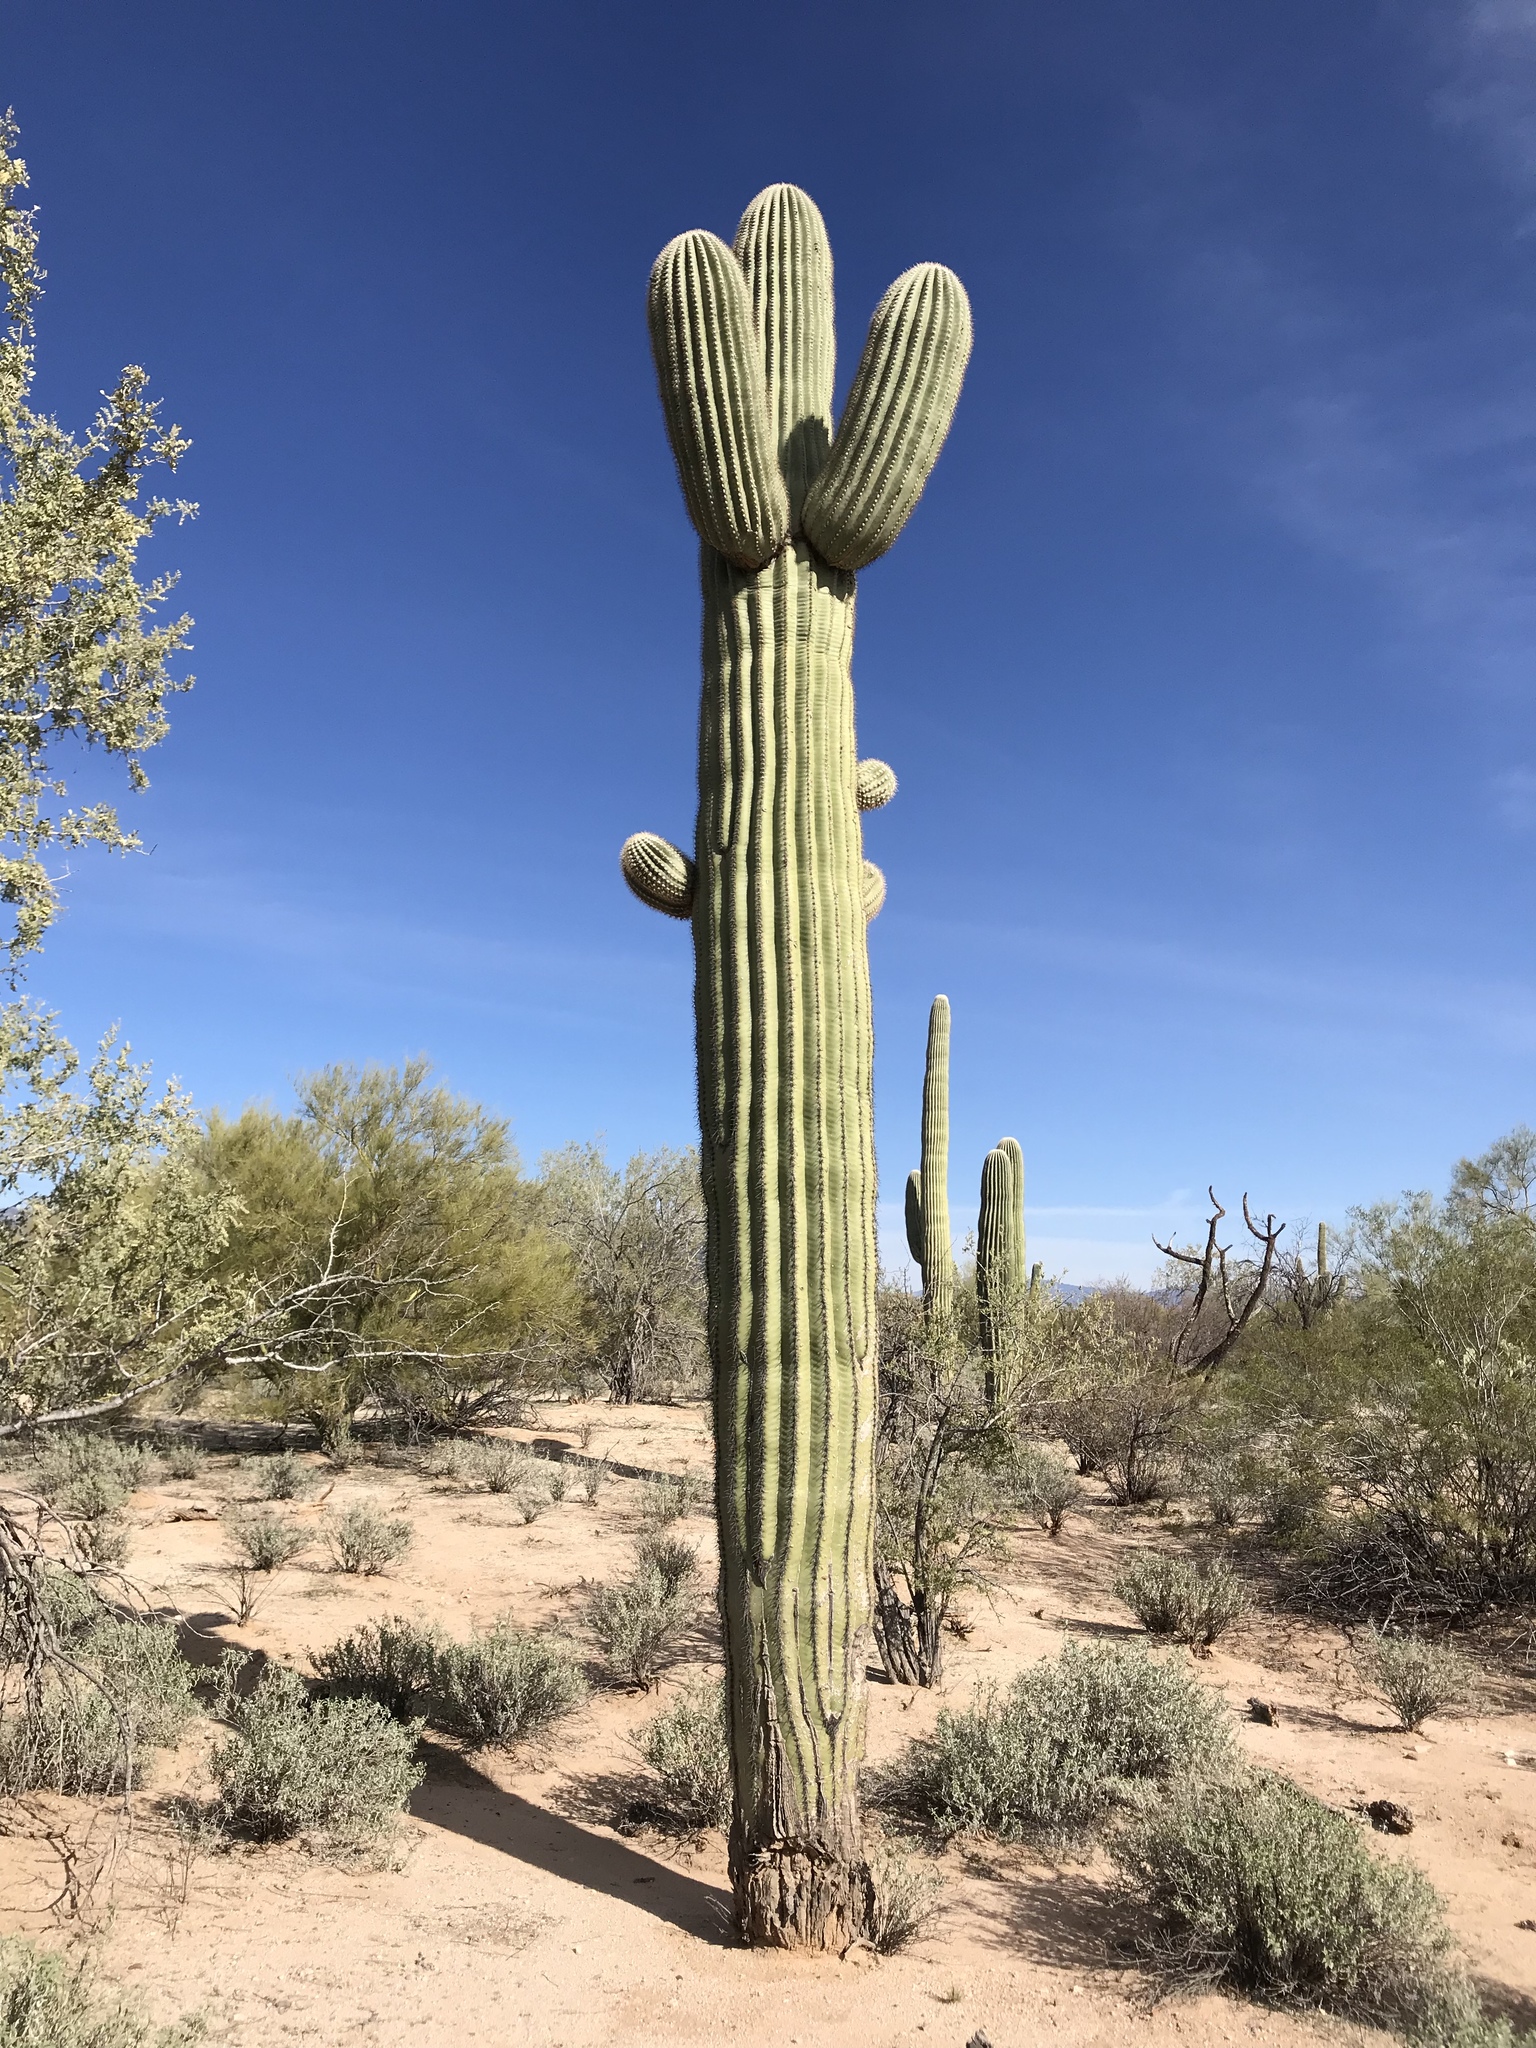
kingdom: Plantae
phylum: Tracheophyta
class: Magnoliopsida
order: Caryophyllales
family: Cactaceae
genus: Carnegiea
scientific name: Carnegiea gigantea
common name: Saguaro
